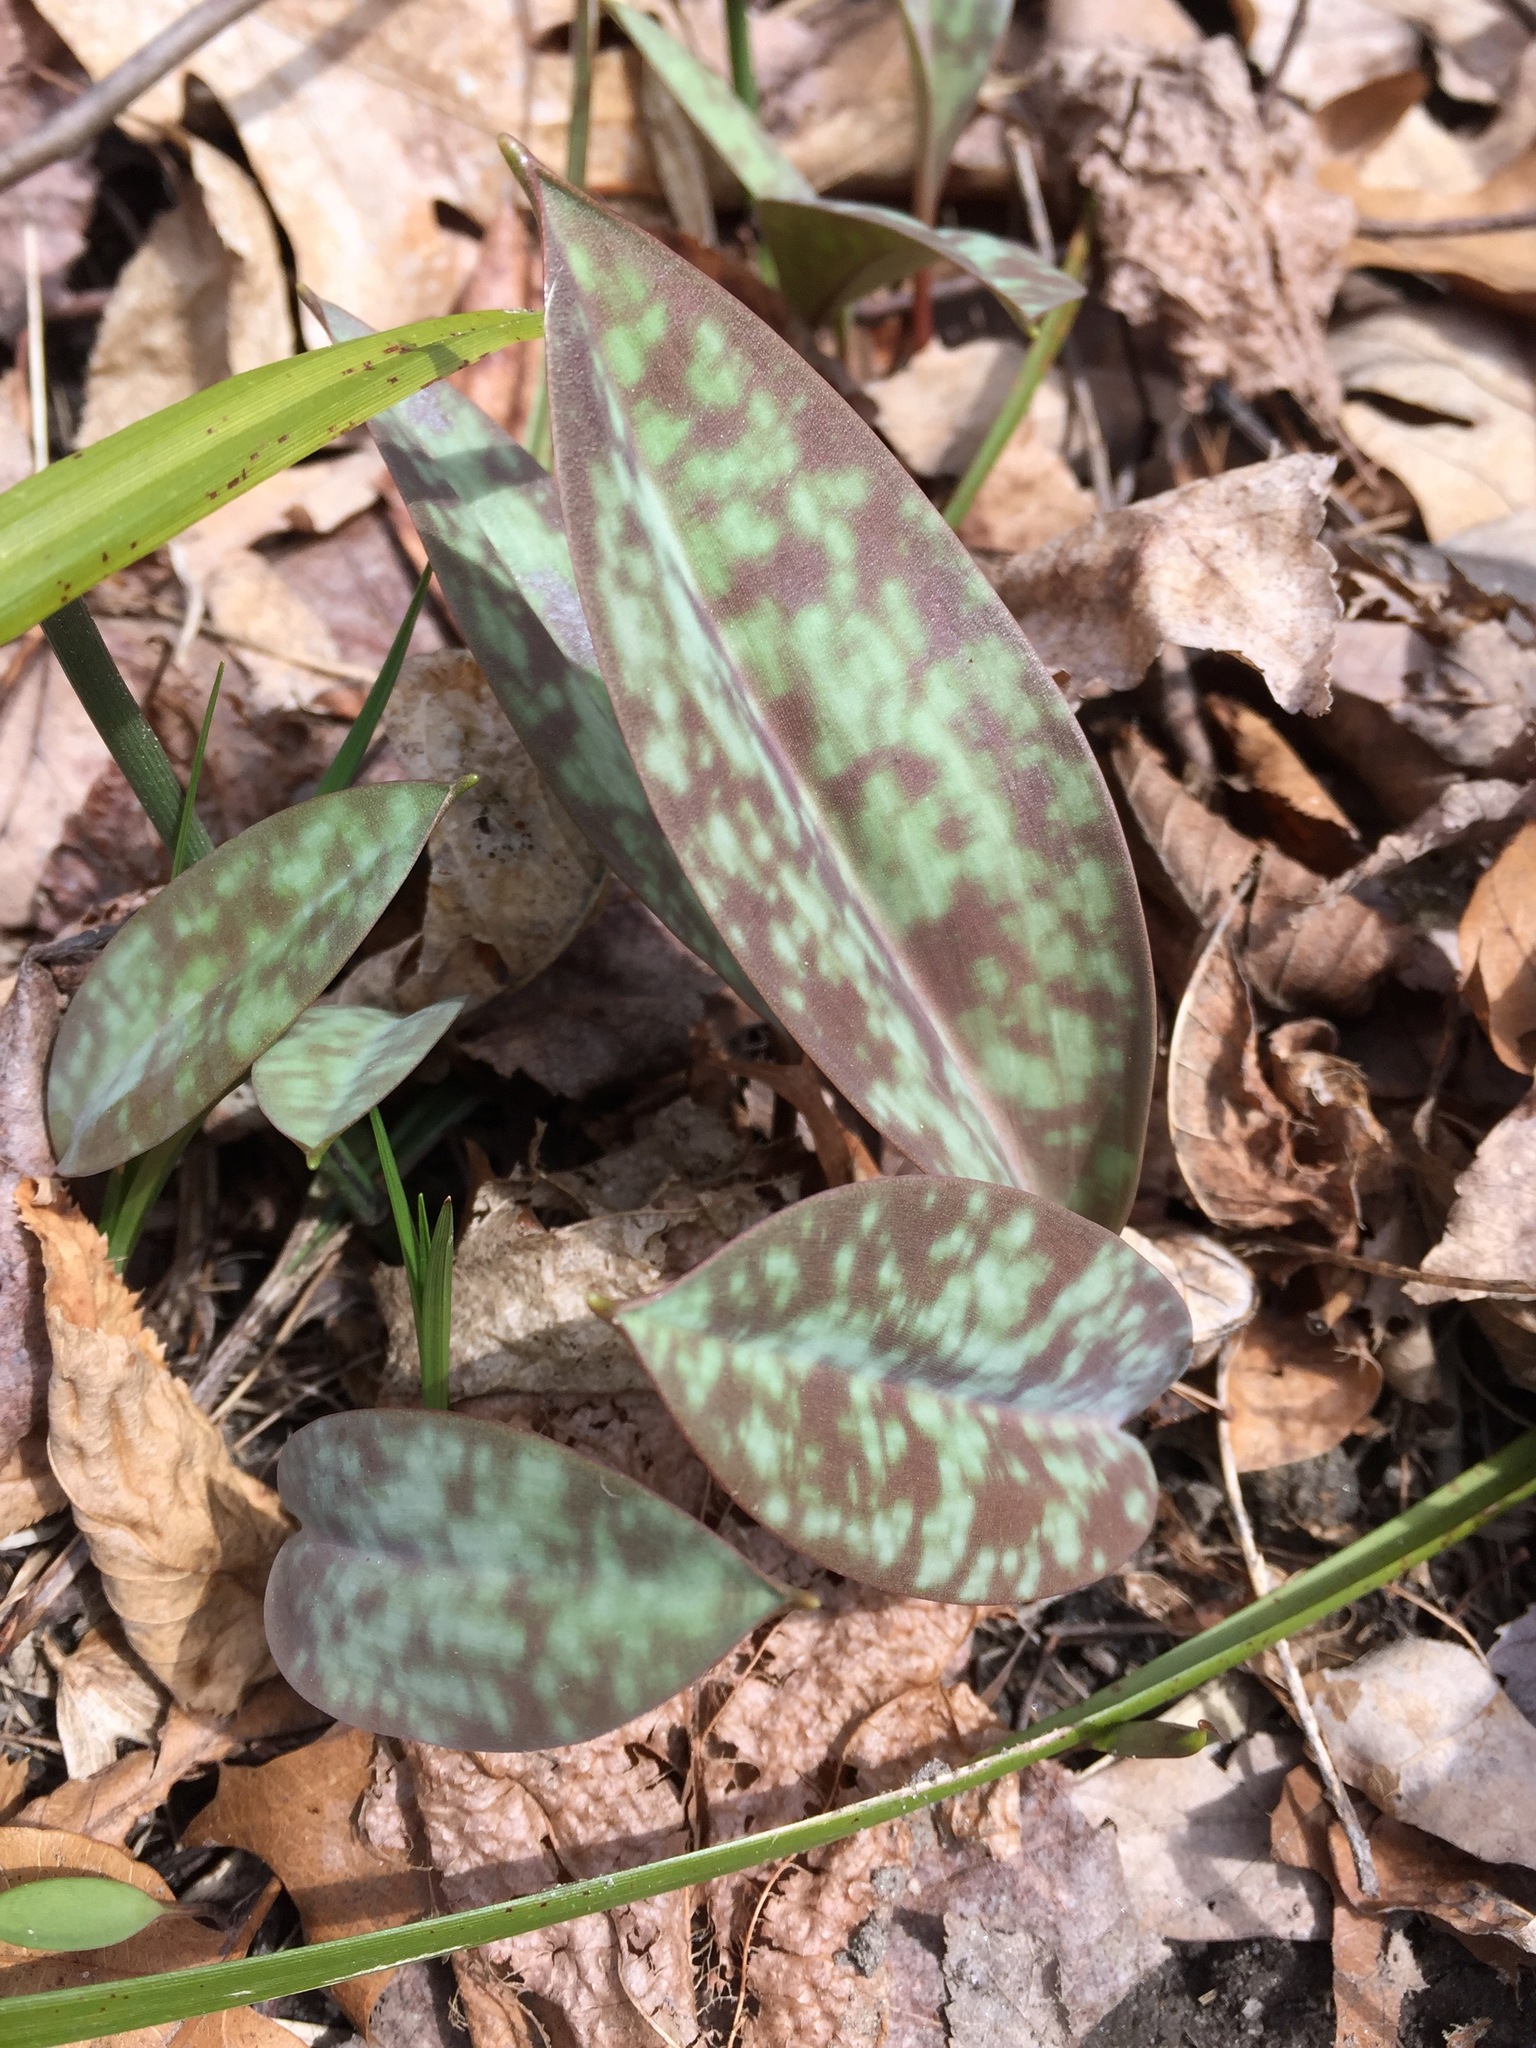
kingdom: Plantae
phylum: Tracheophyta
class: Liliopsida
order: Liliales
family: Liliaceae
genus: Erythronium
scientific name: Erythronium americanum
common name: Yellow adder's-tongue
